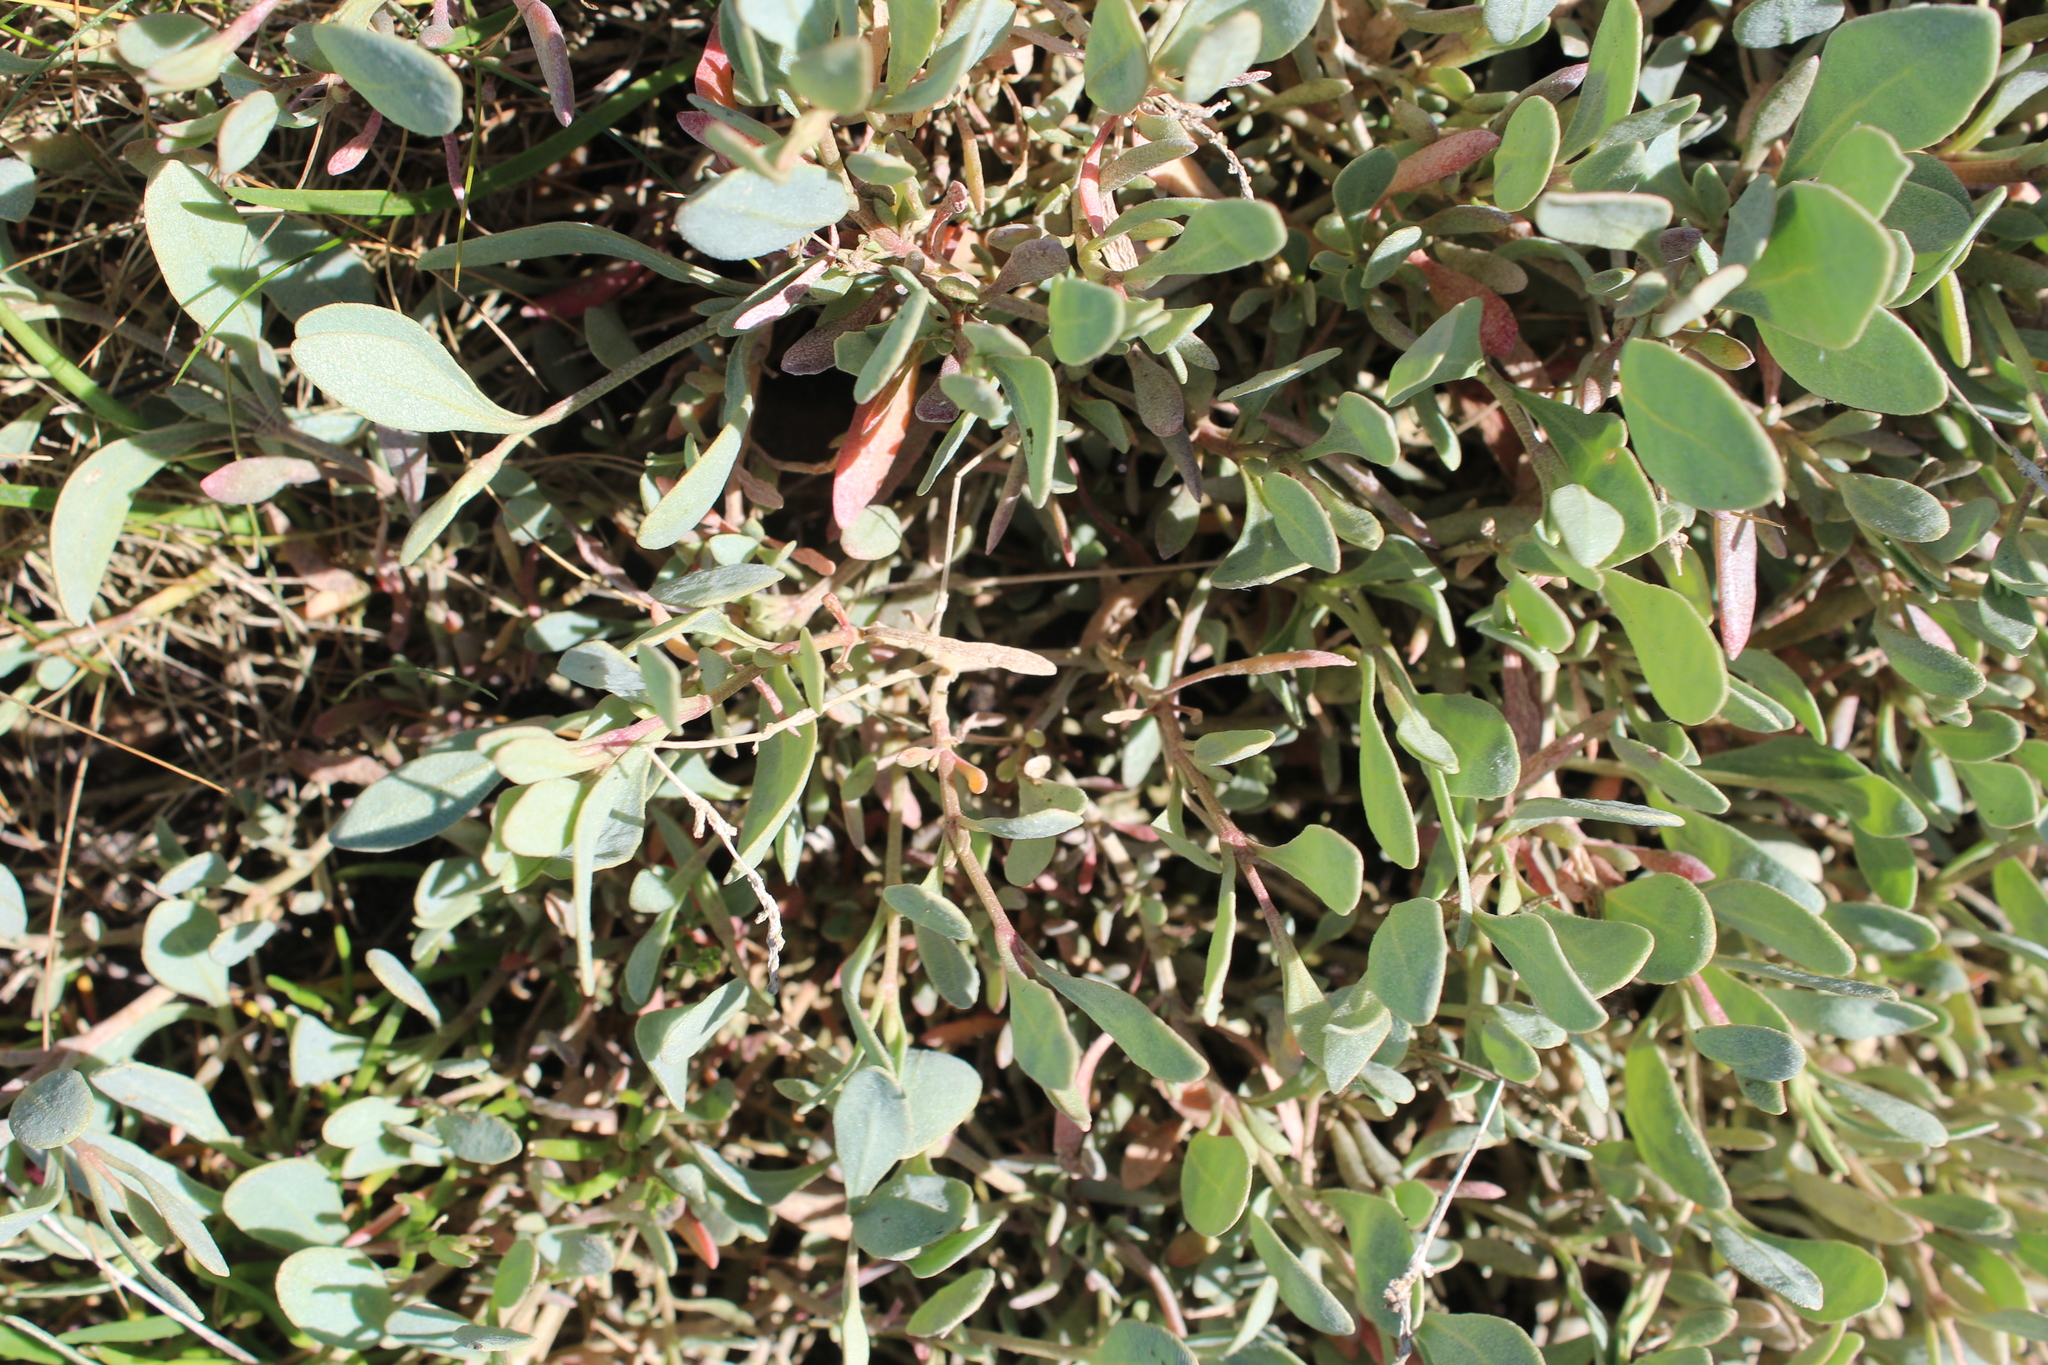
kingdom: Plantae
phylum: Tracheophyta
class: Magnoliopsida
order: Caryophyllales
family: Amaranthaceae
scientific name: Amaranthaceae
